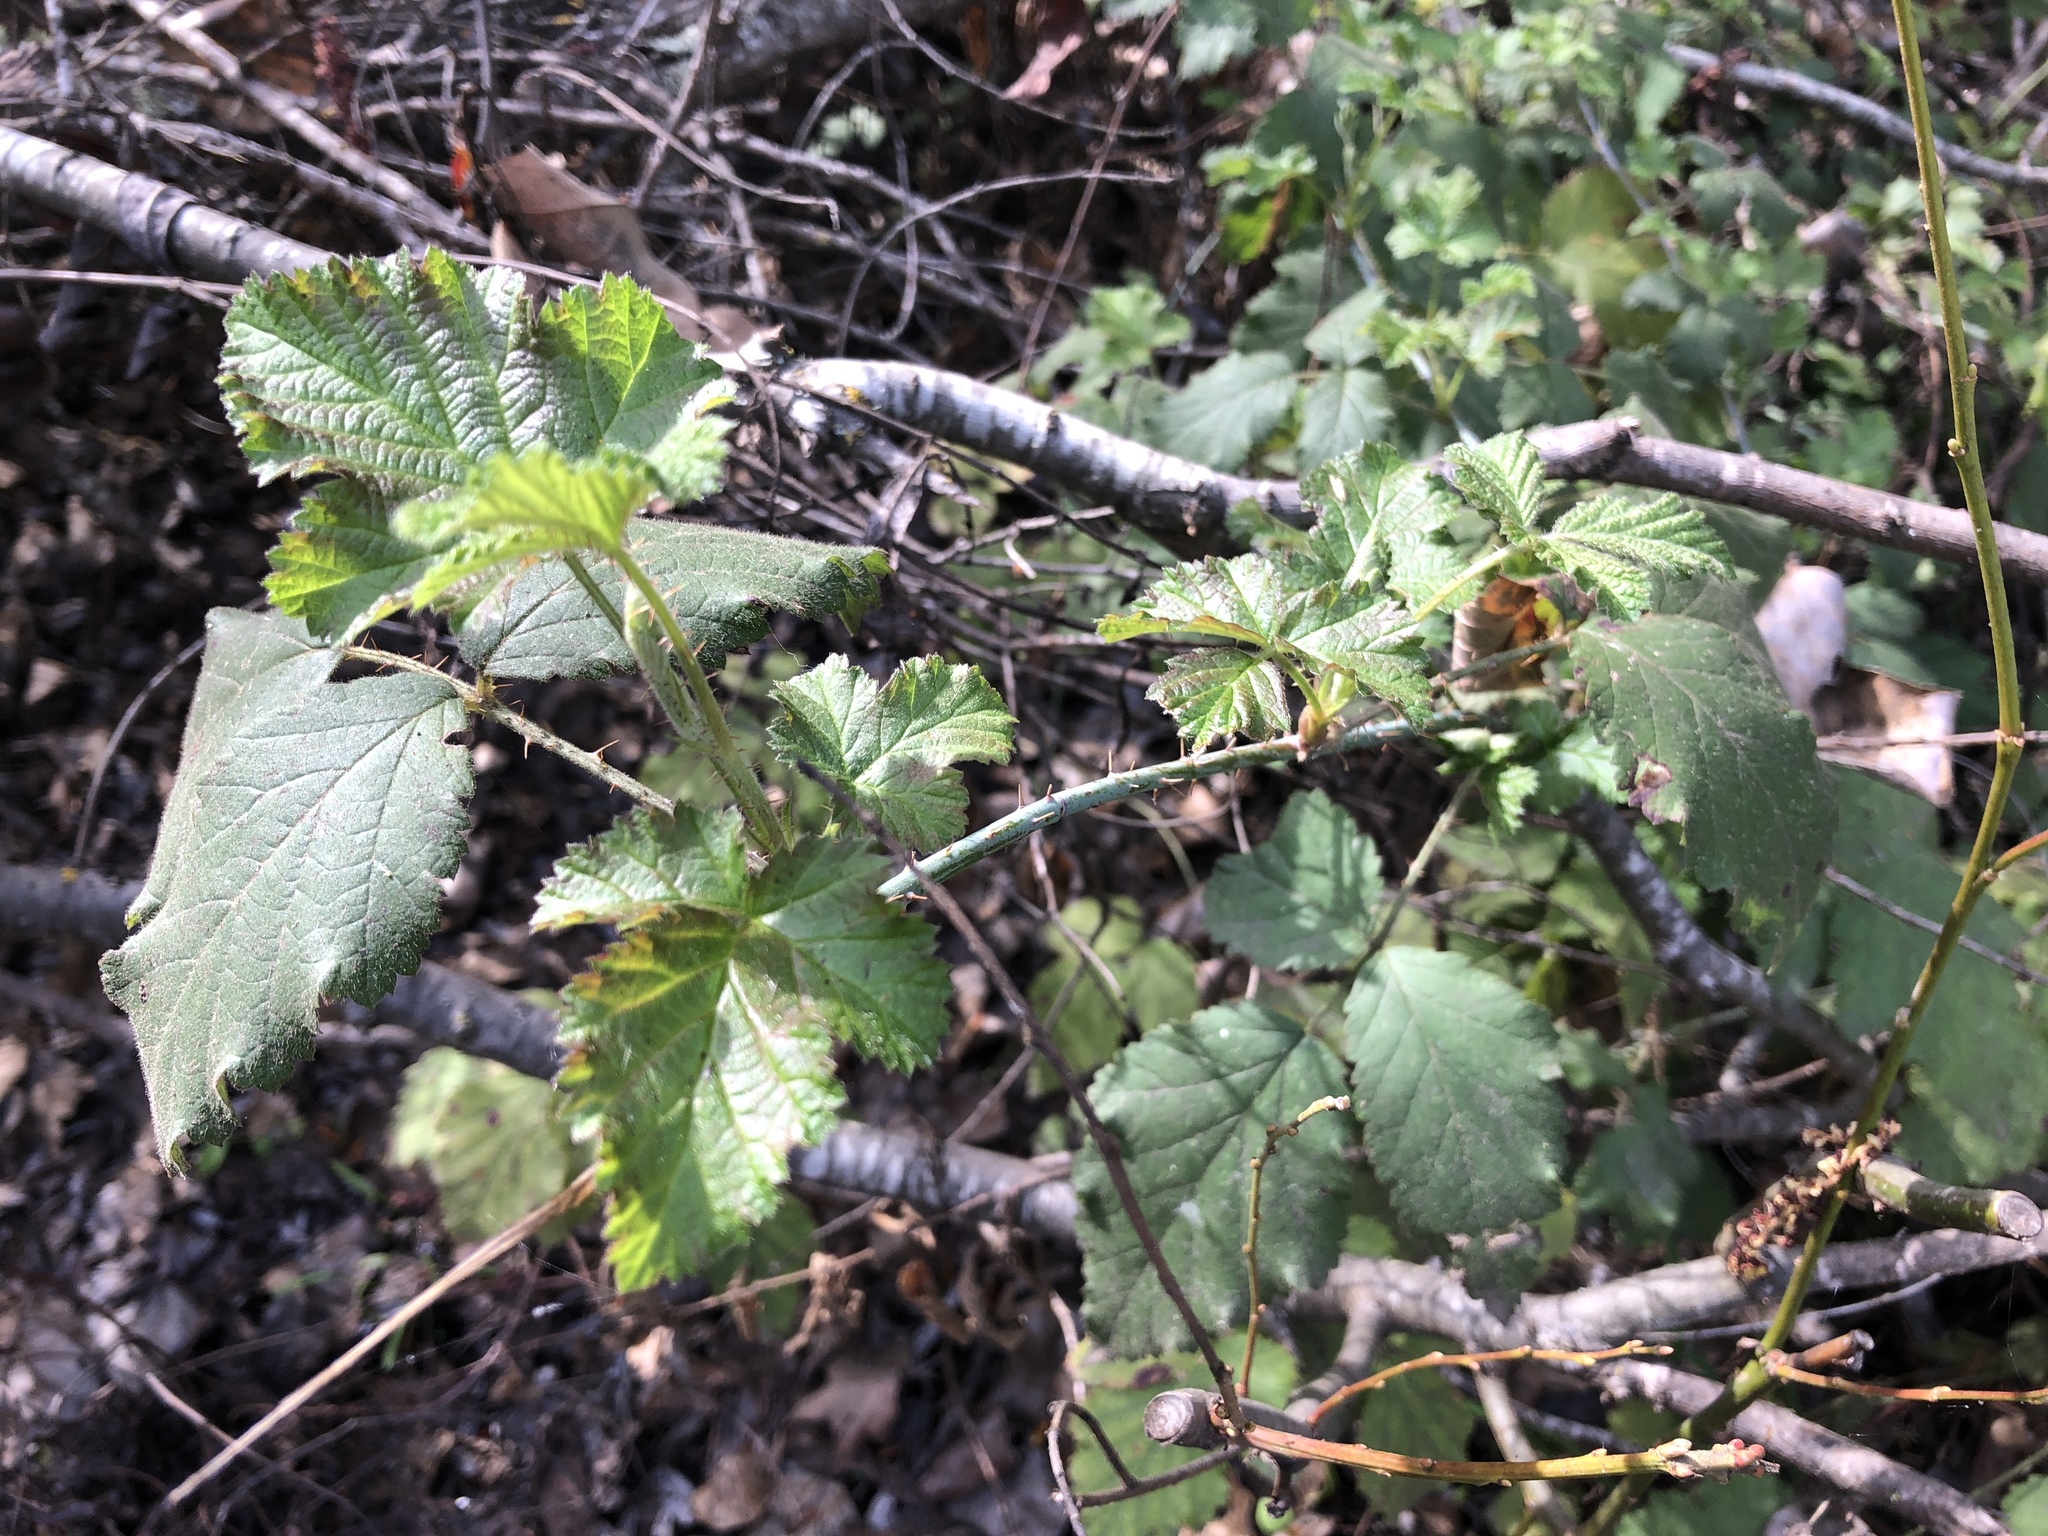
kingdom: Plantae
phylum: Tracheophyta
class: Magnoliopsida
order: Rosales
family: Rosaceae
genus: Rubus
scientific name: Rubus ursinus
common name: Pacific blackberry
